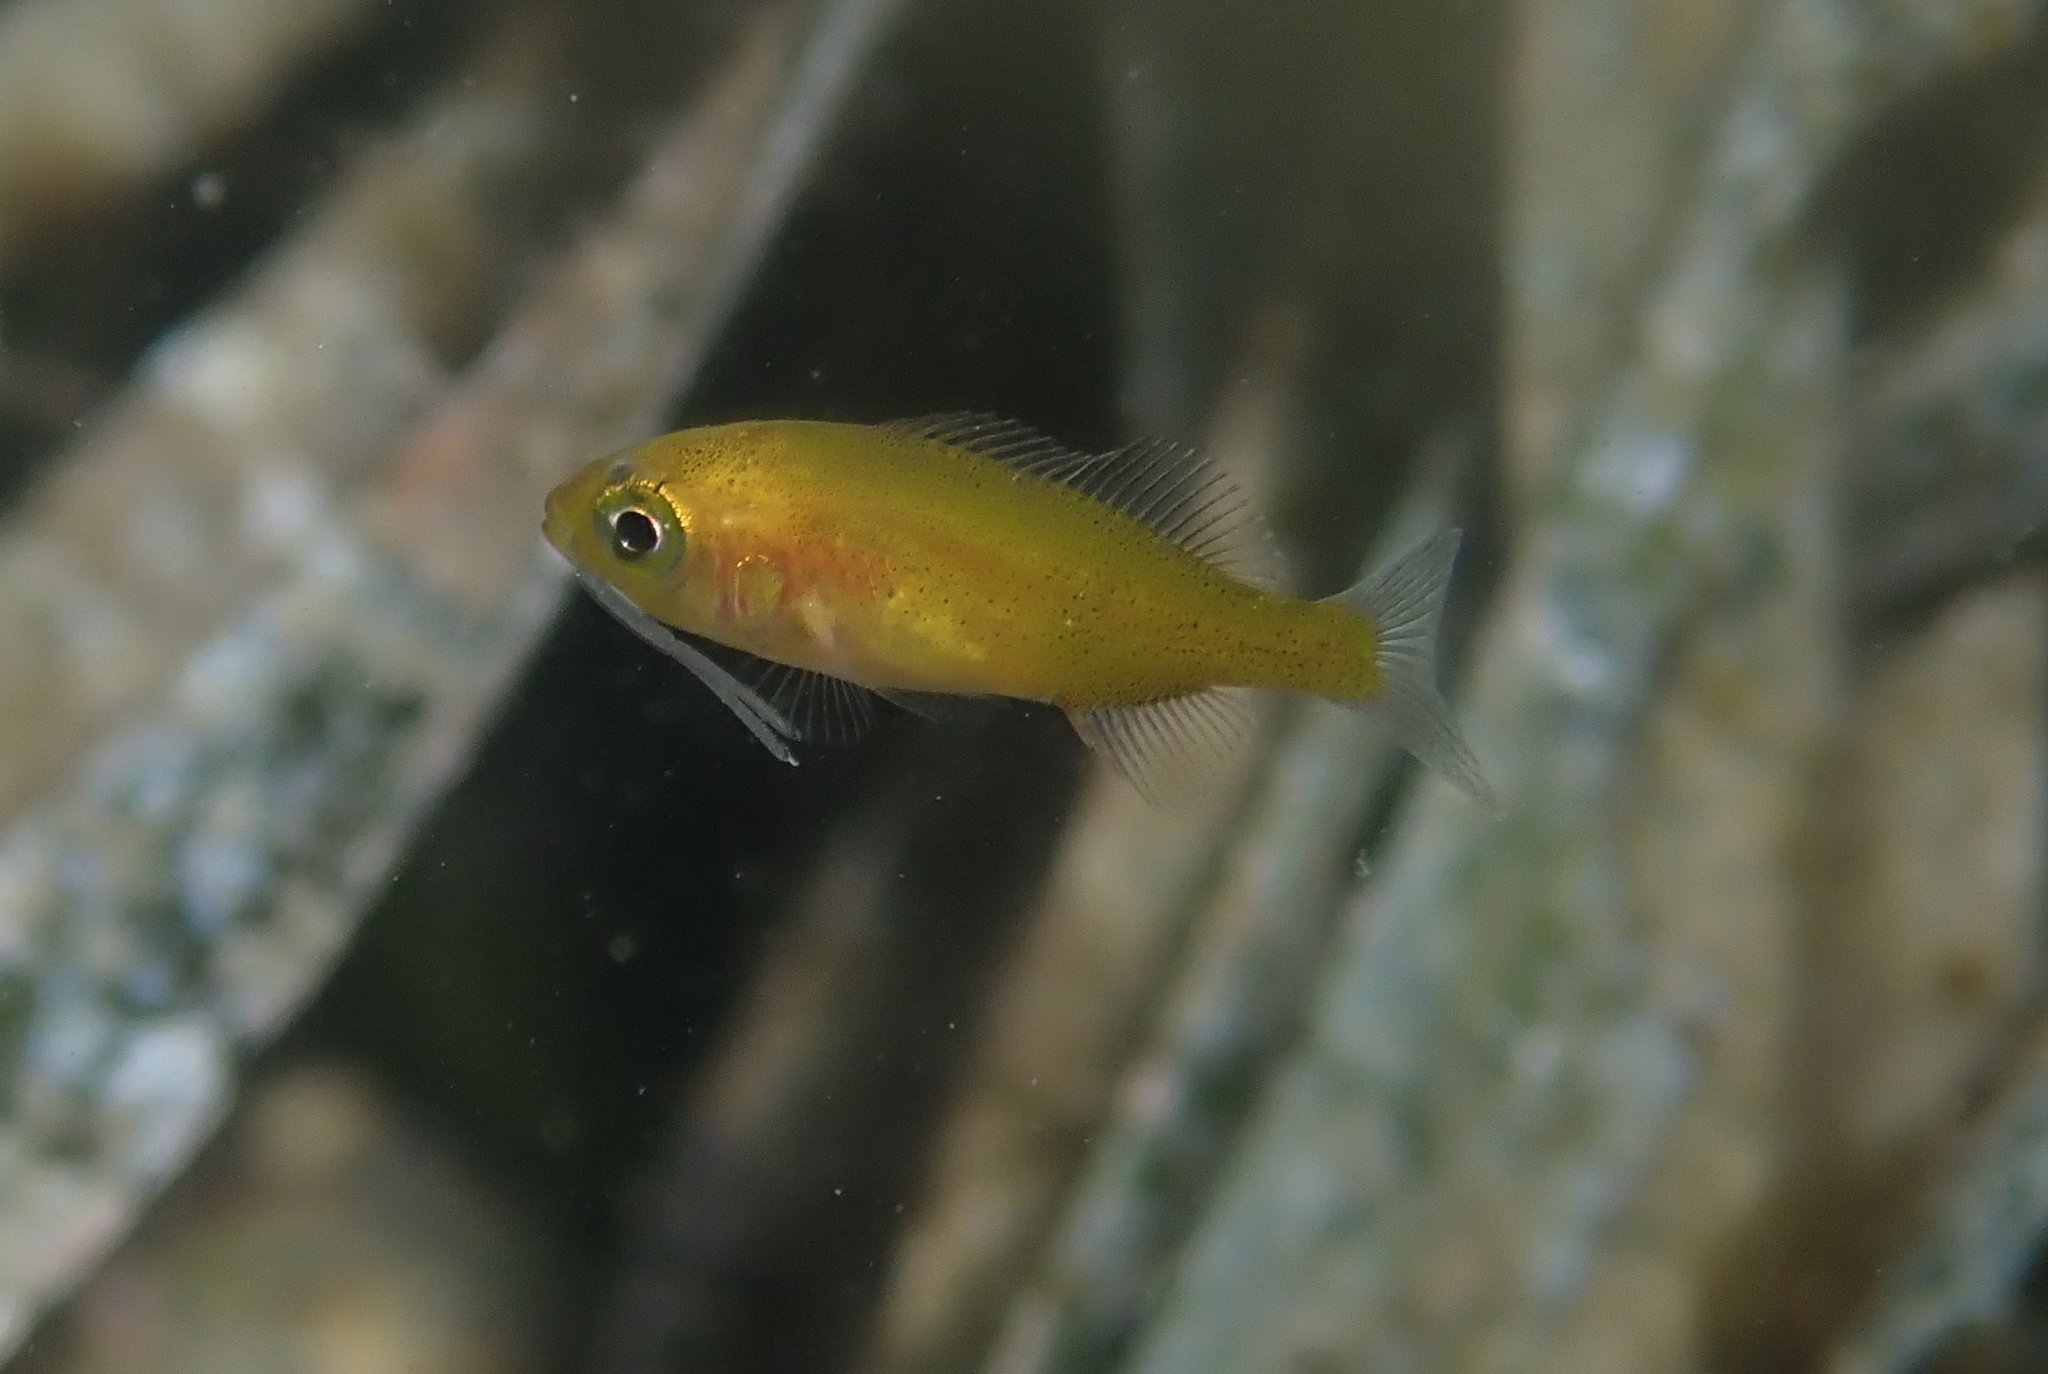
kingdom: Animalia
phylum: Chordata
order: Perciformes
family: Sparidae
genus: Spondyliosoma
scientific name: Spondyliosoma cantharus
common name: Black seabream
